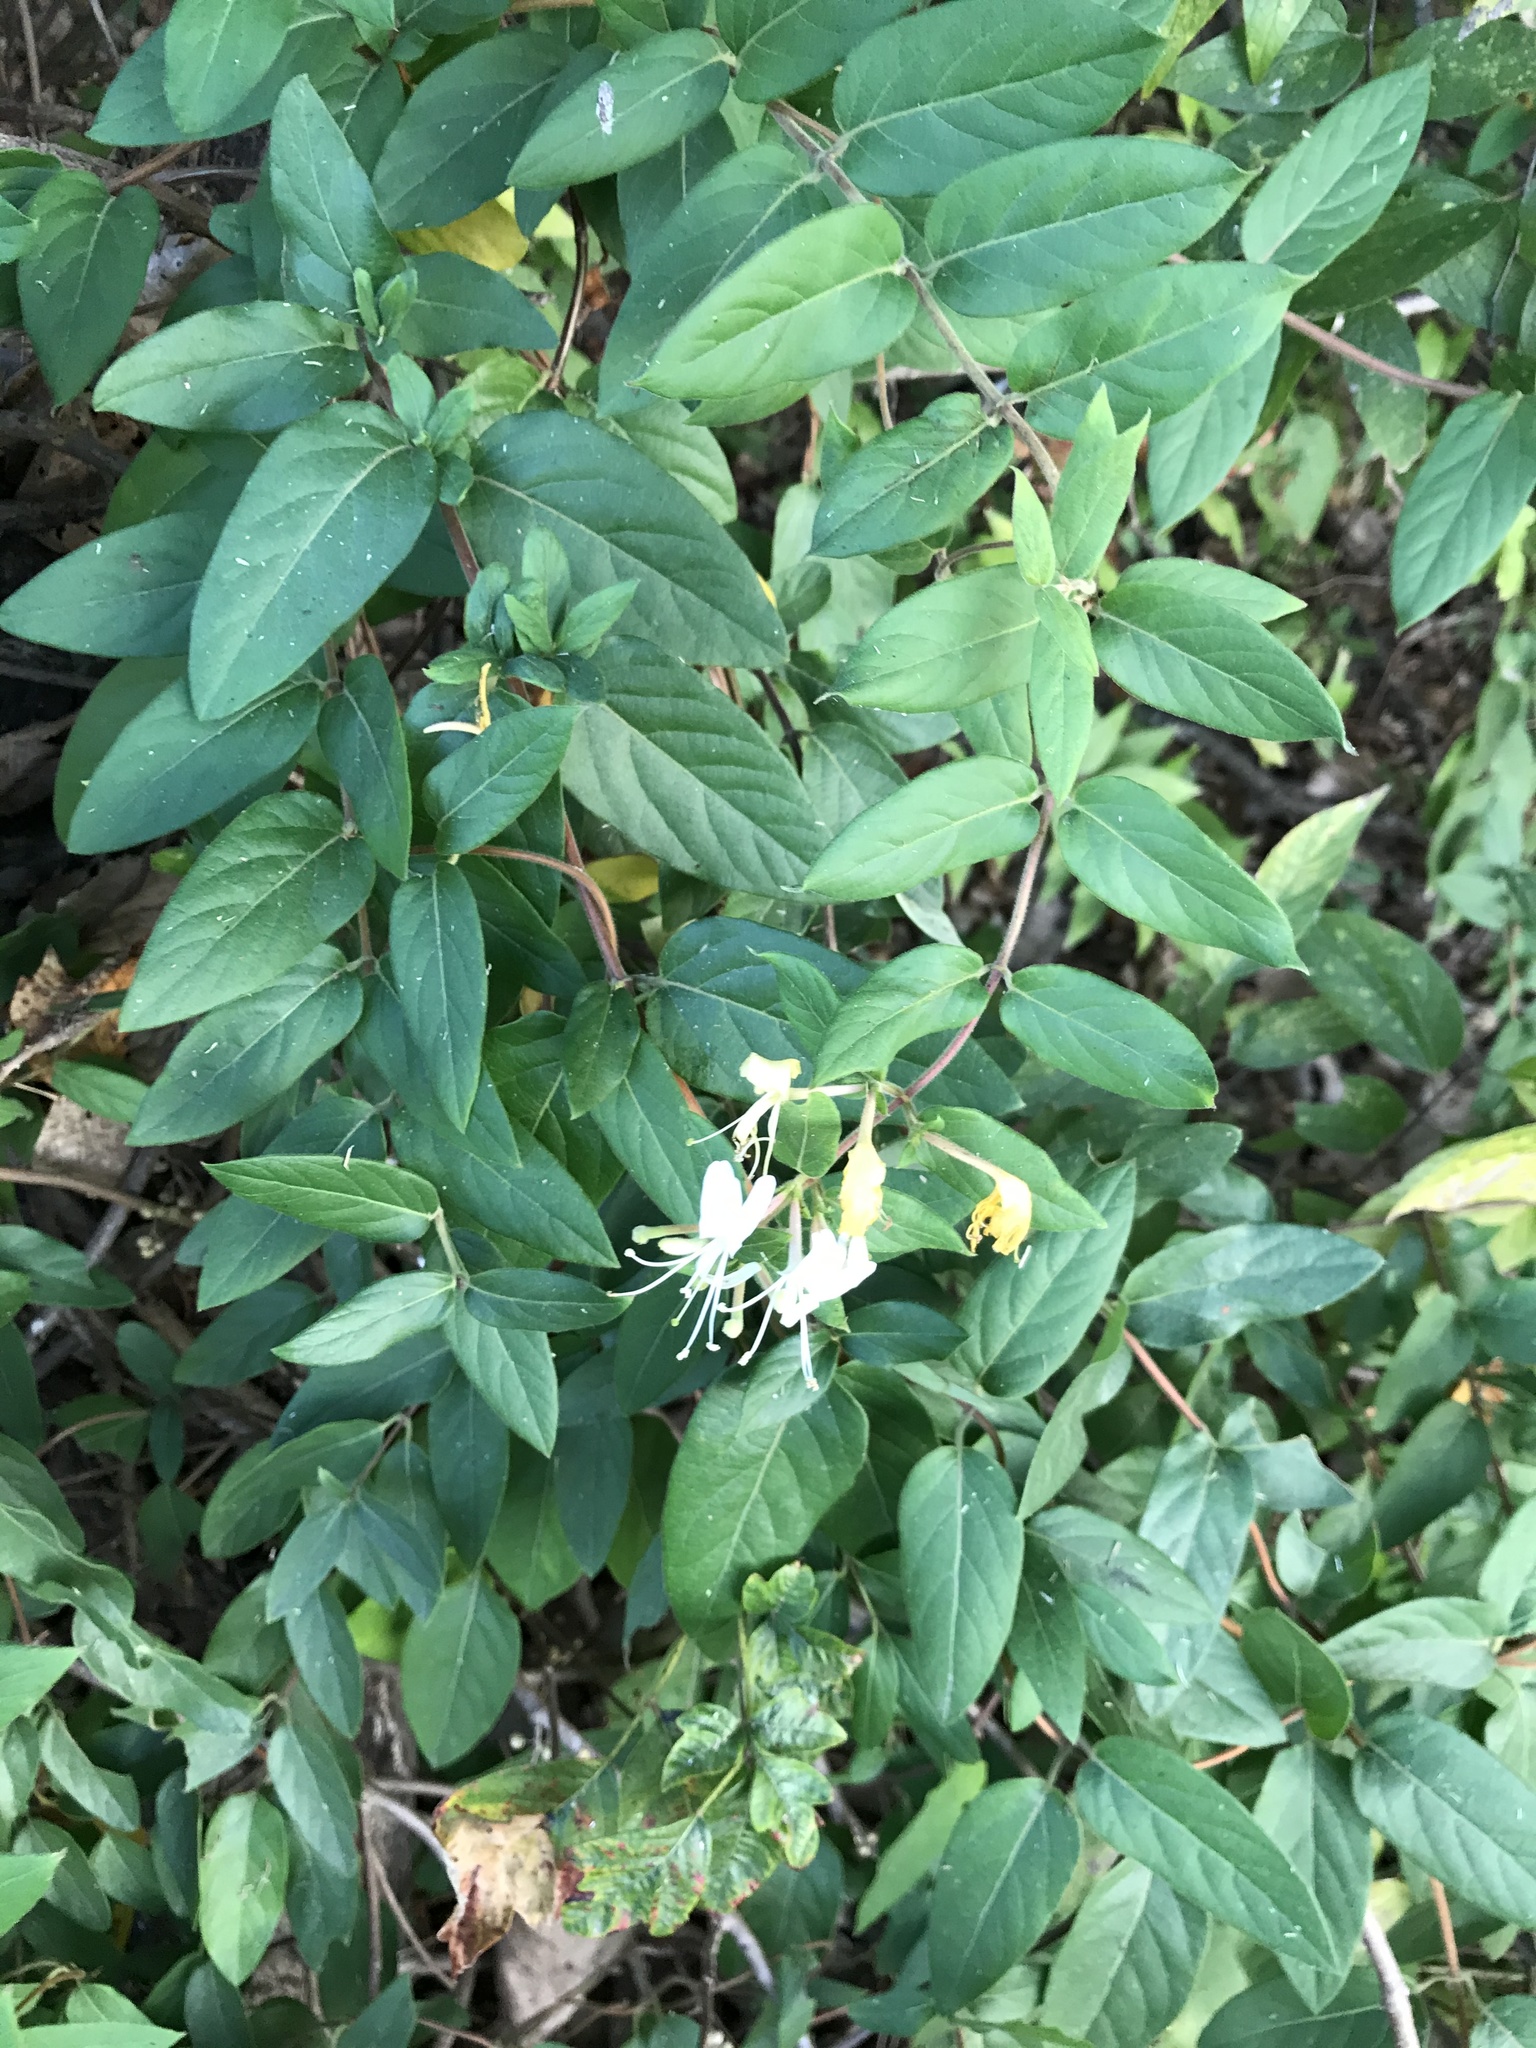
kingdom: Plantae
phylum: Tracheophyta
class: Magnoliopsida
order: Dipsacales
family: Caprifoliaceae
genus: Lonicera
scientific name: Lonicera japonica
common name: Japanese honeysuckle
